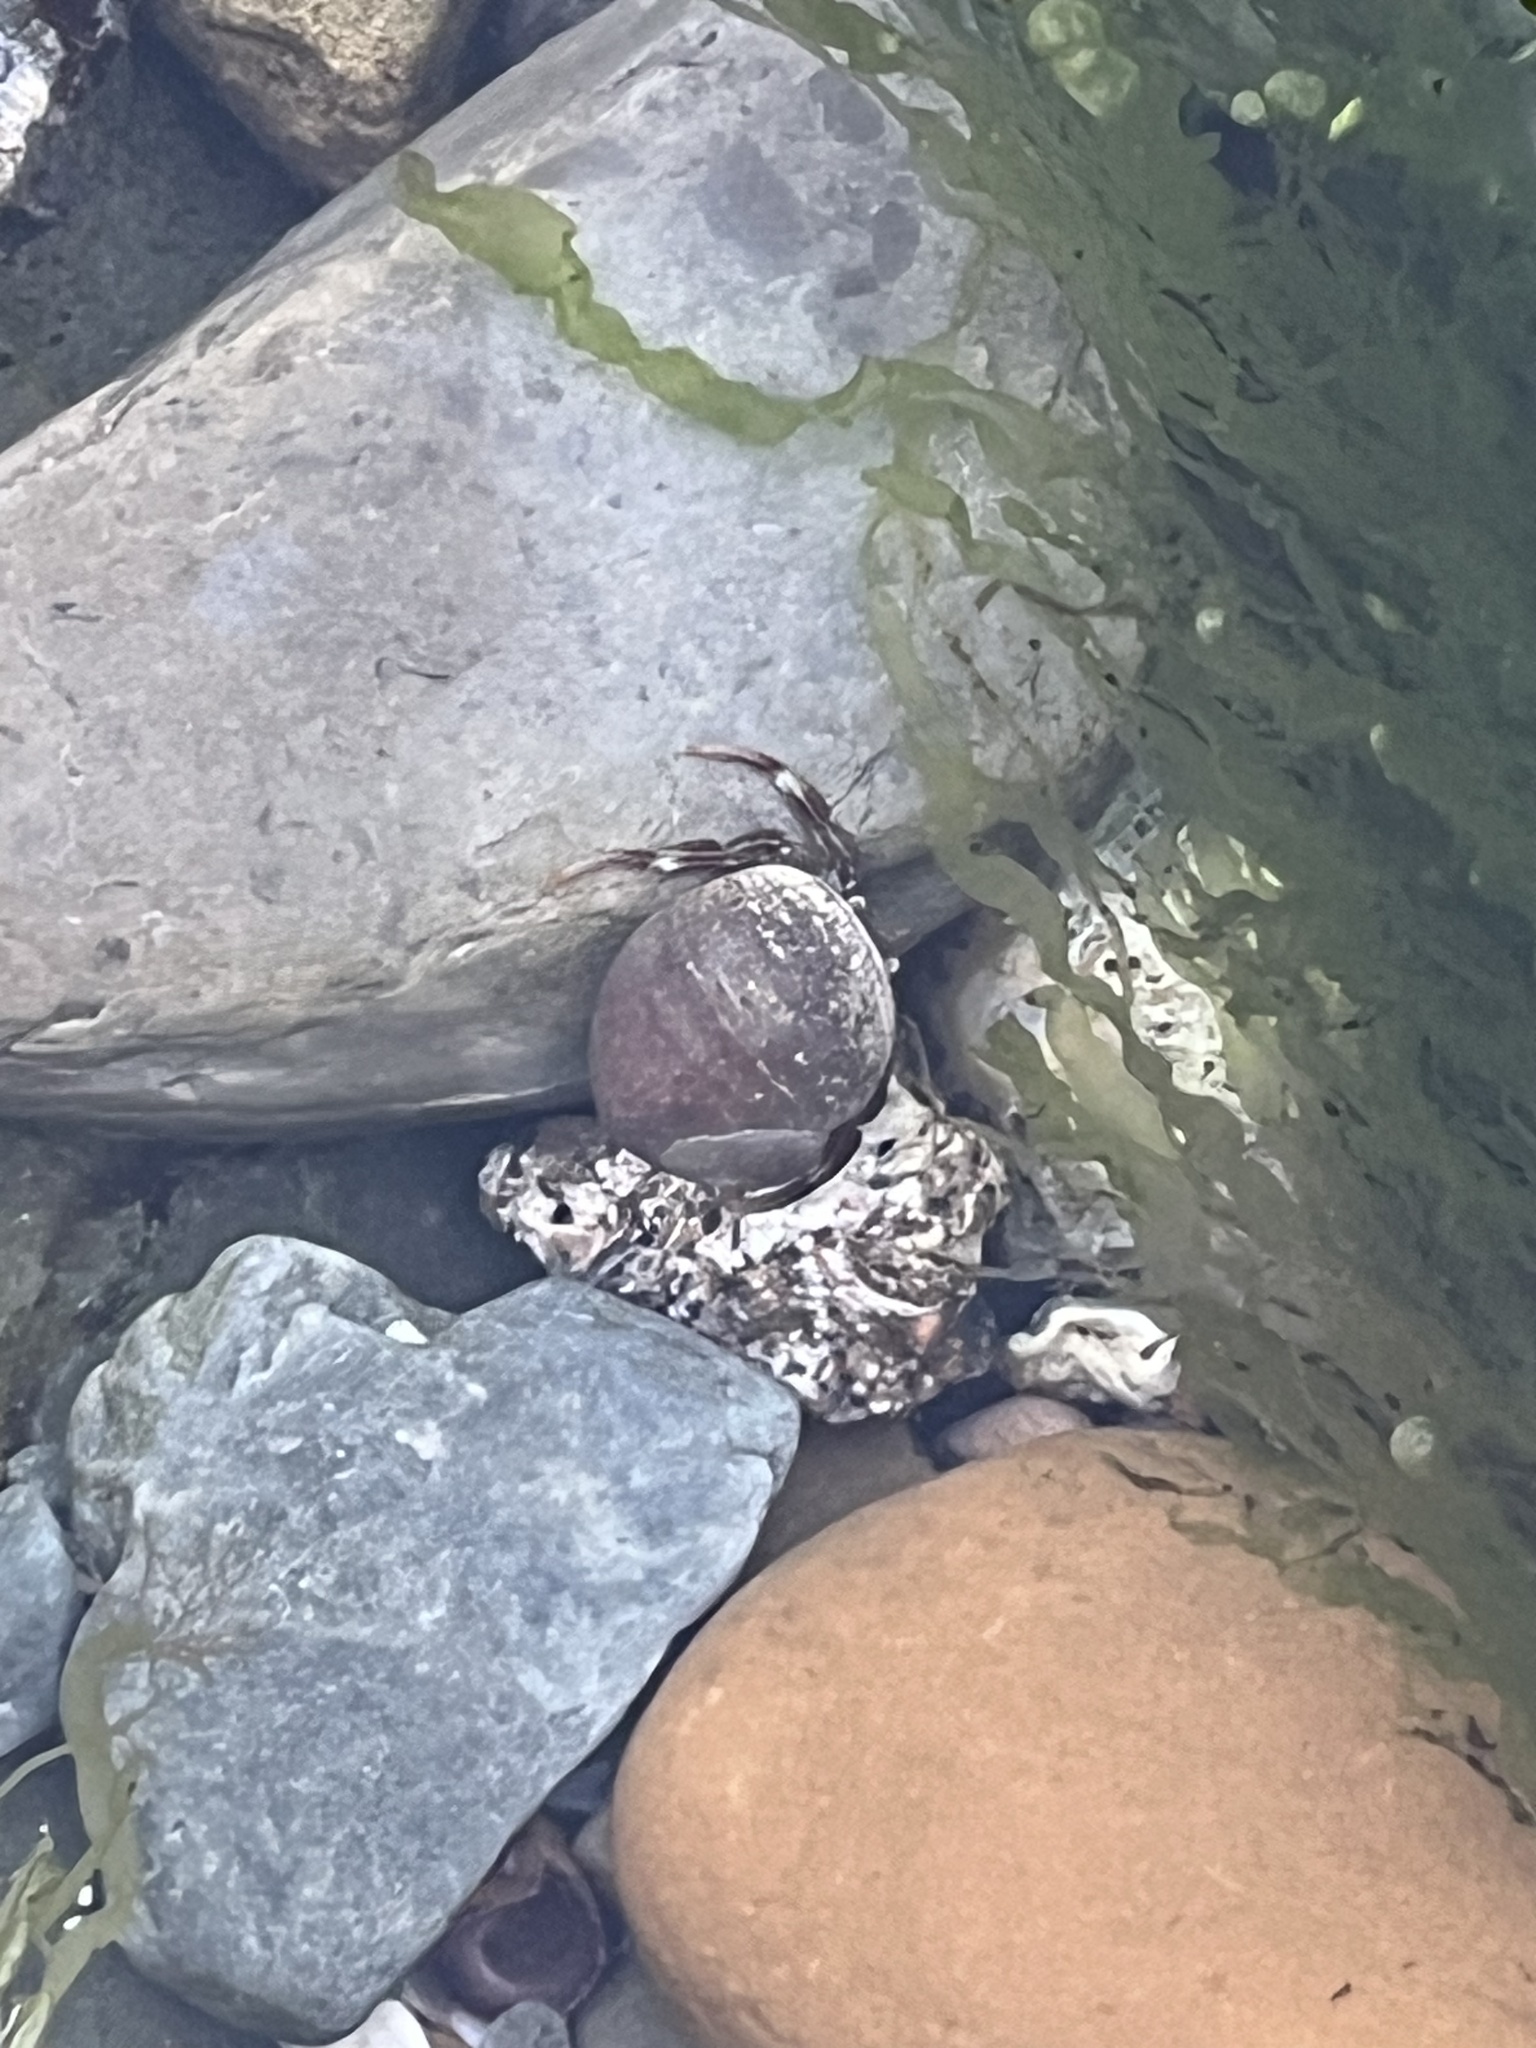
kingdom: Animalia
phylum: Arthropoda
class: Malacostraca
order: Decapoda
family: Paguridae
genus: Pagurus
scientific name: Pagurus bernhardus
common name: Hermit crab
